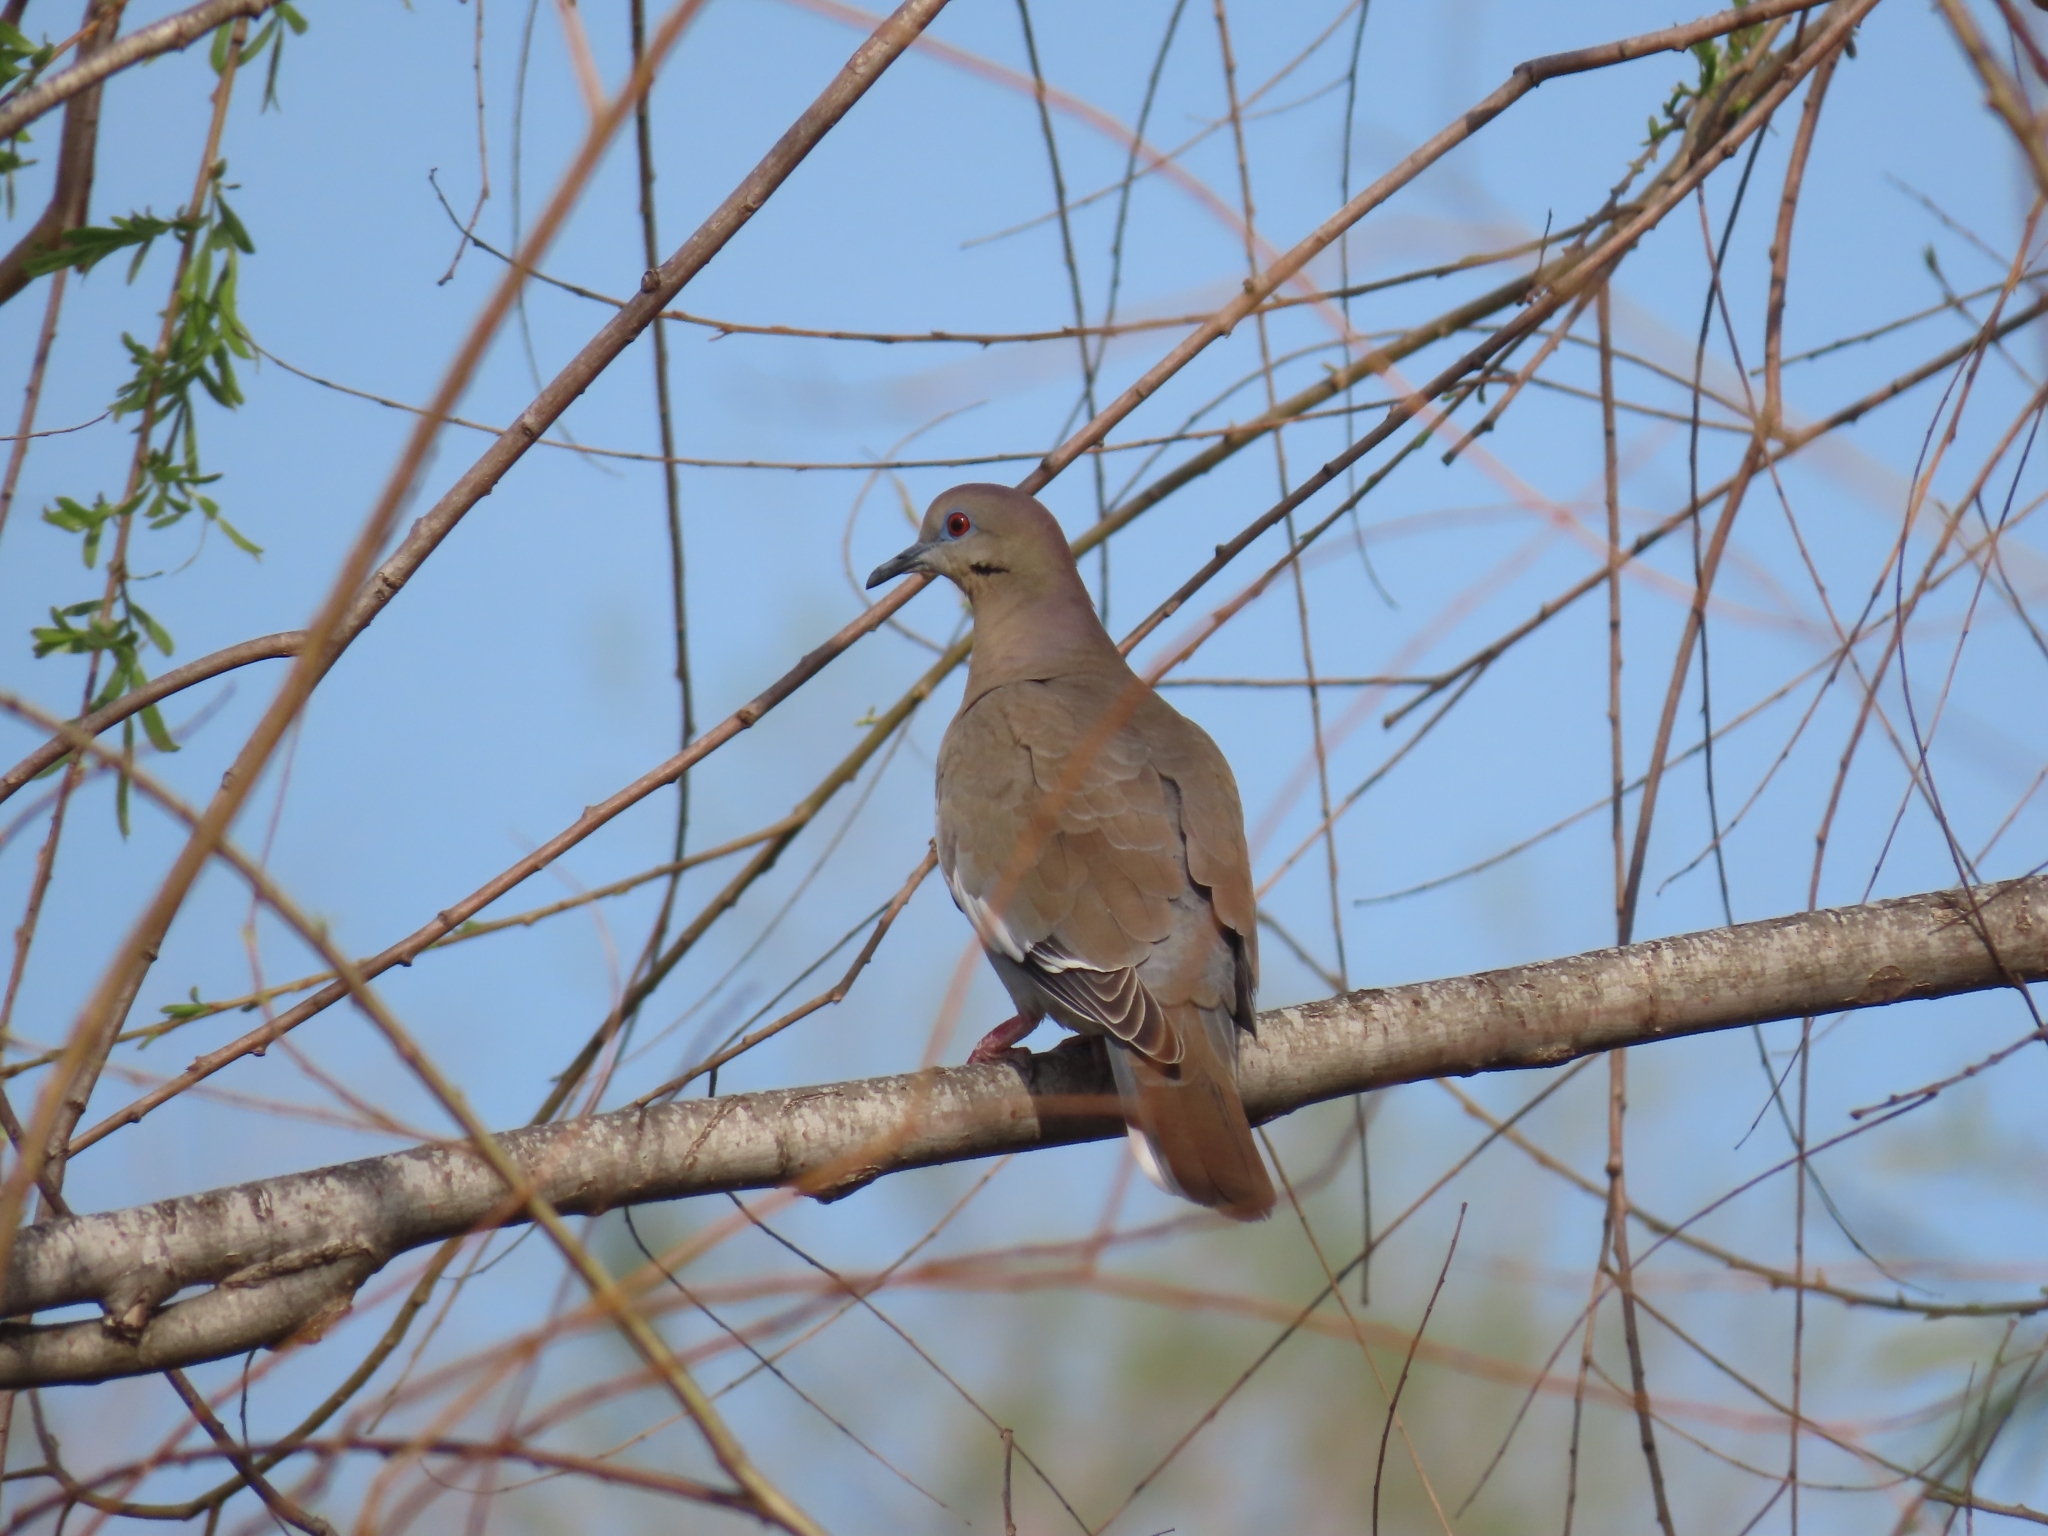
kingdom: Animalia
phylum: Chordata
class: Aves
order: Columbiformes
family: Columbidae
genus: Zenaida
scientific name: Zenaida asiatica
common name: White-winged dove
